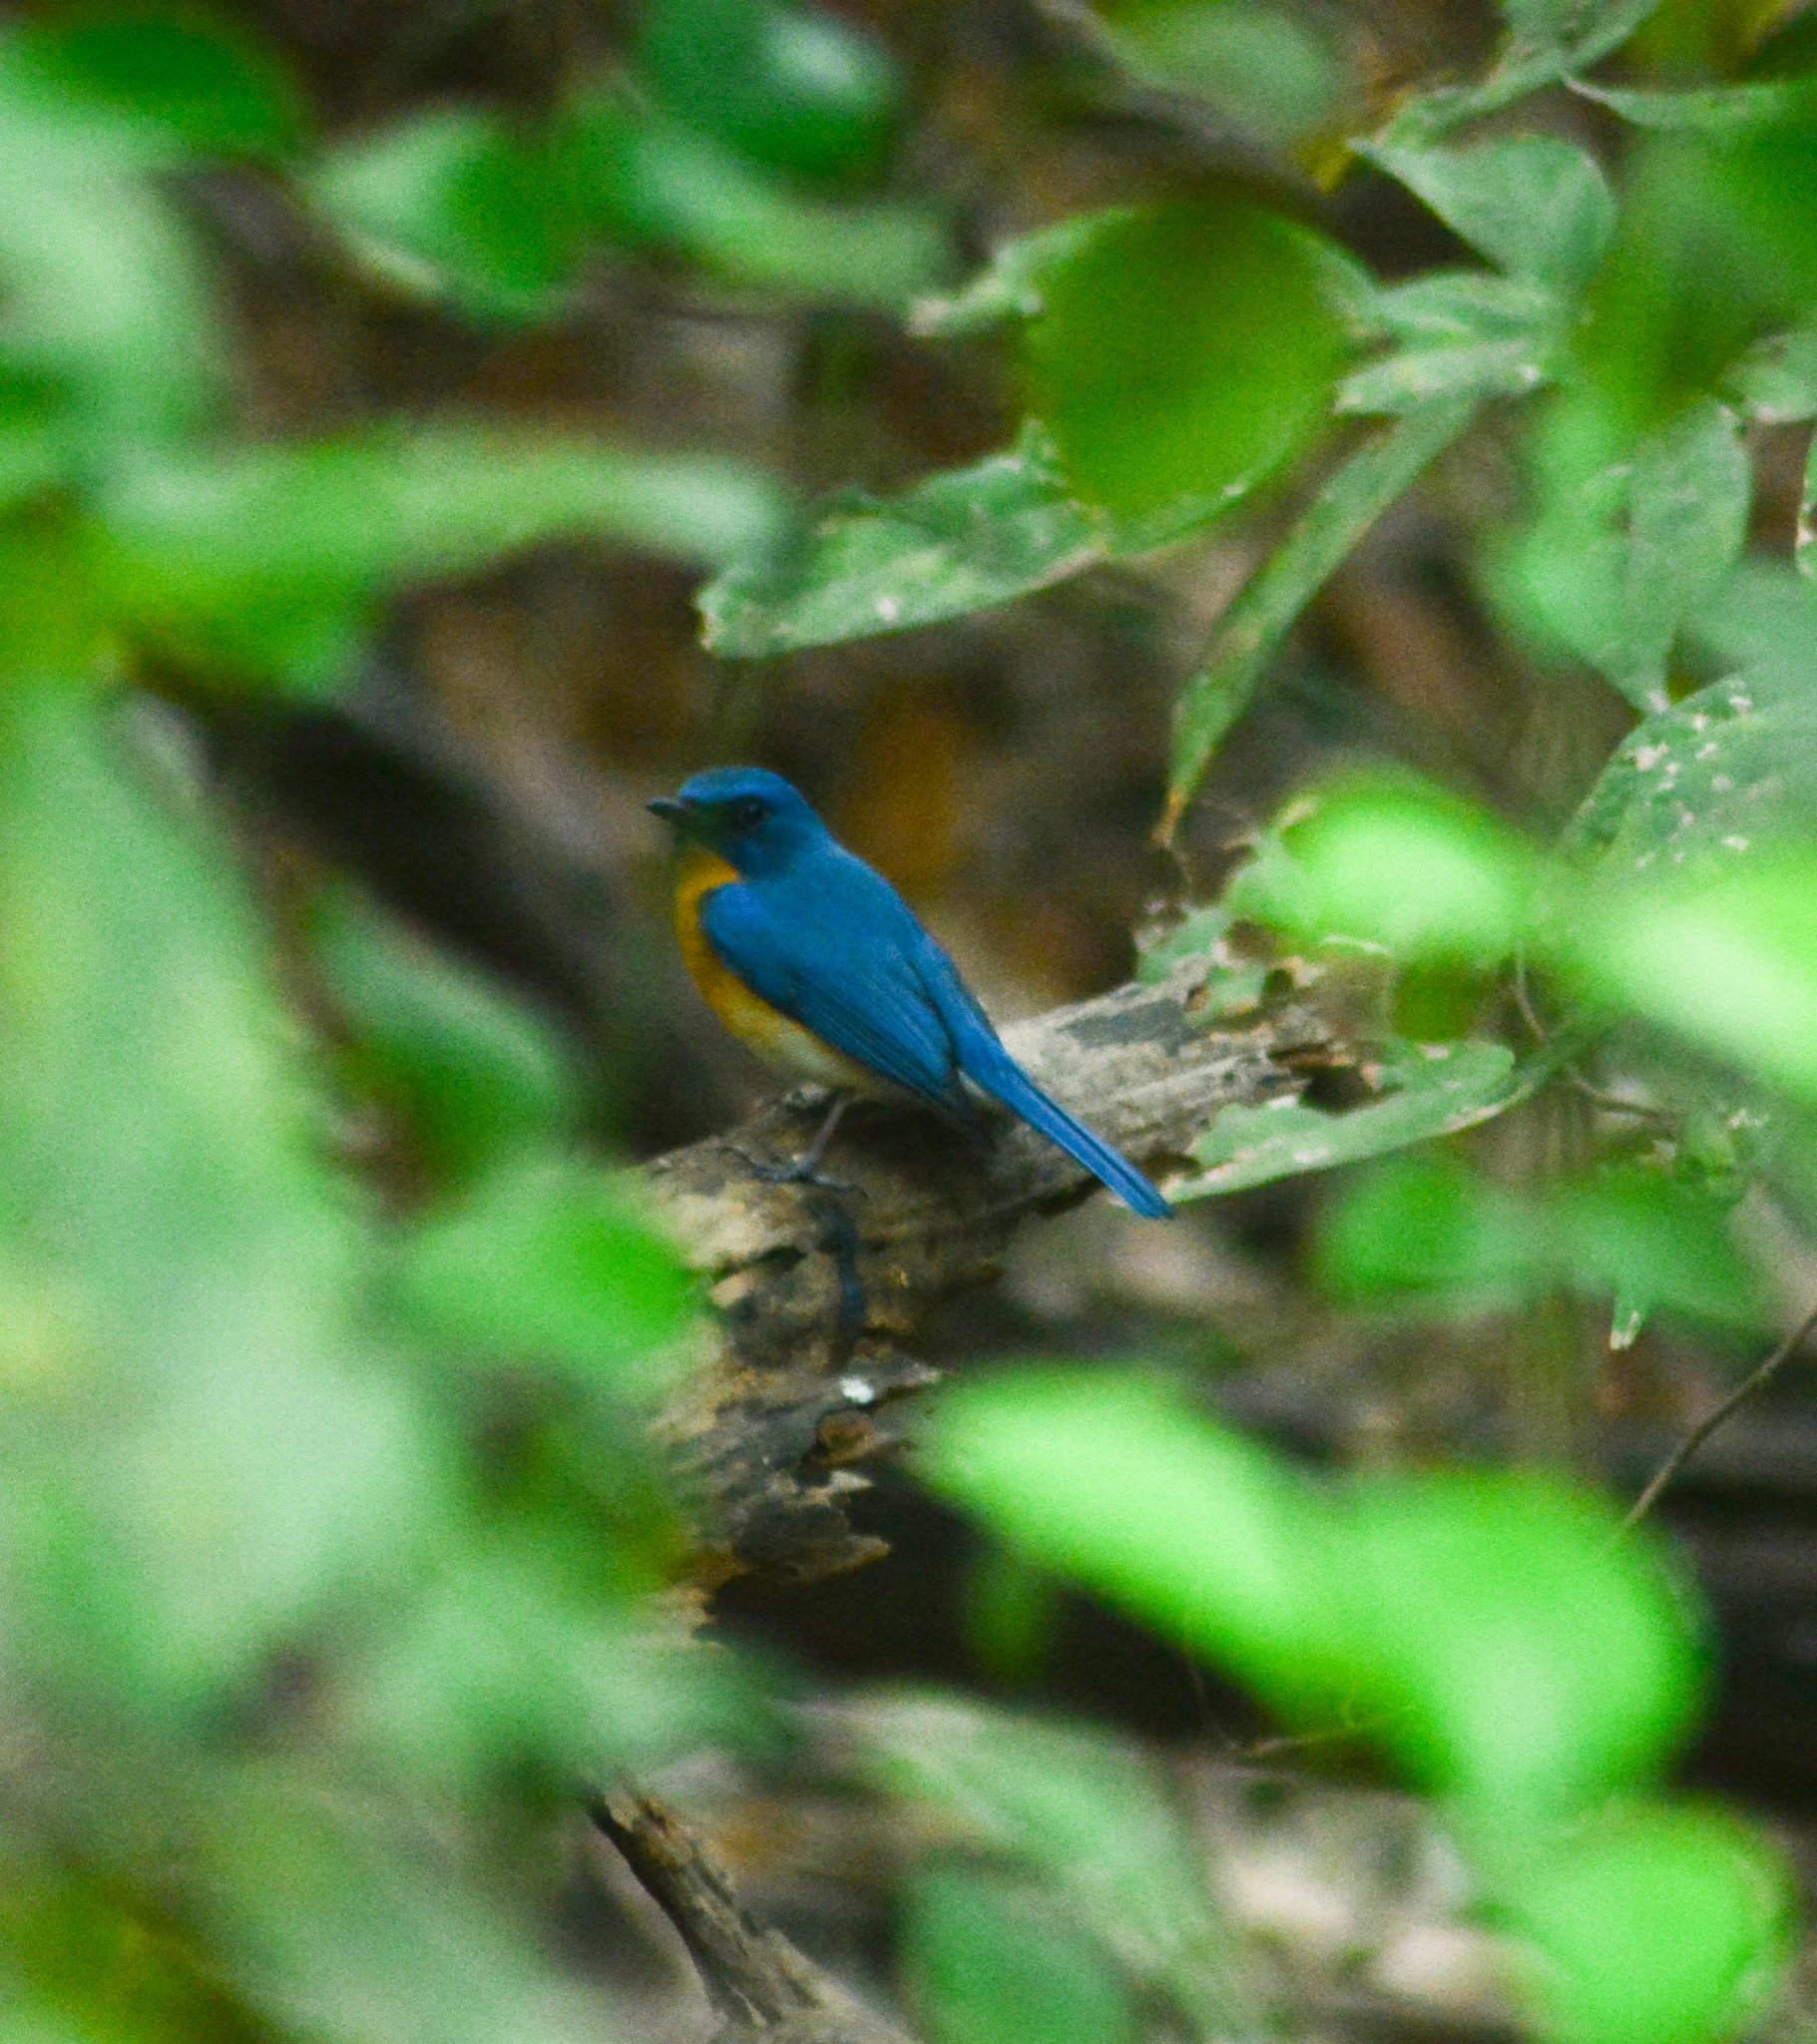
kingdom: Animalia
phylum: Chordata
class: Aves
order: Passeriformes
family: Muscicapidae
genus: Cyornis
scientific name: Cyornis tickelliae
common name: Tickell's blue flycatcher
